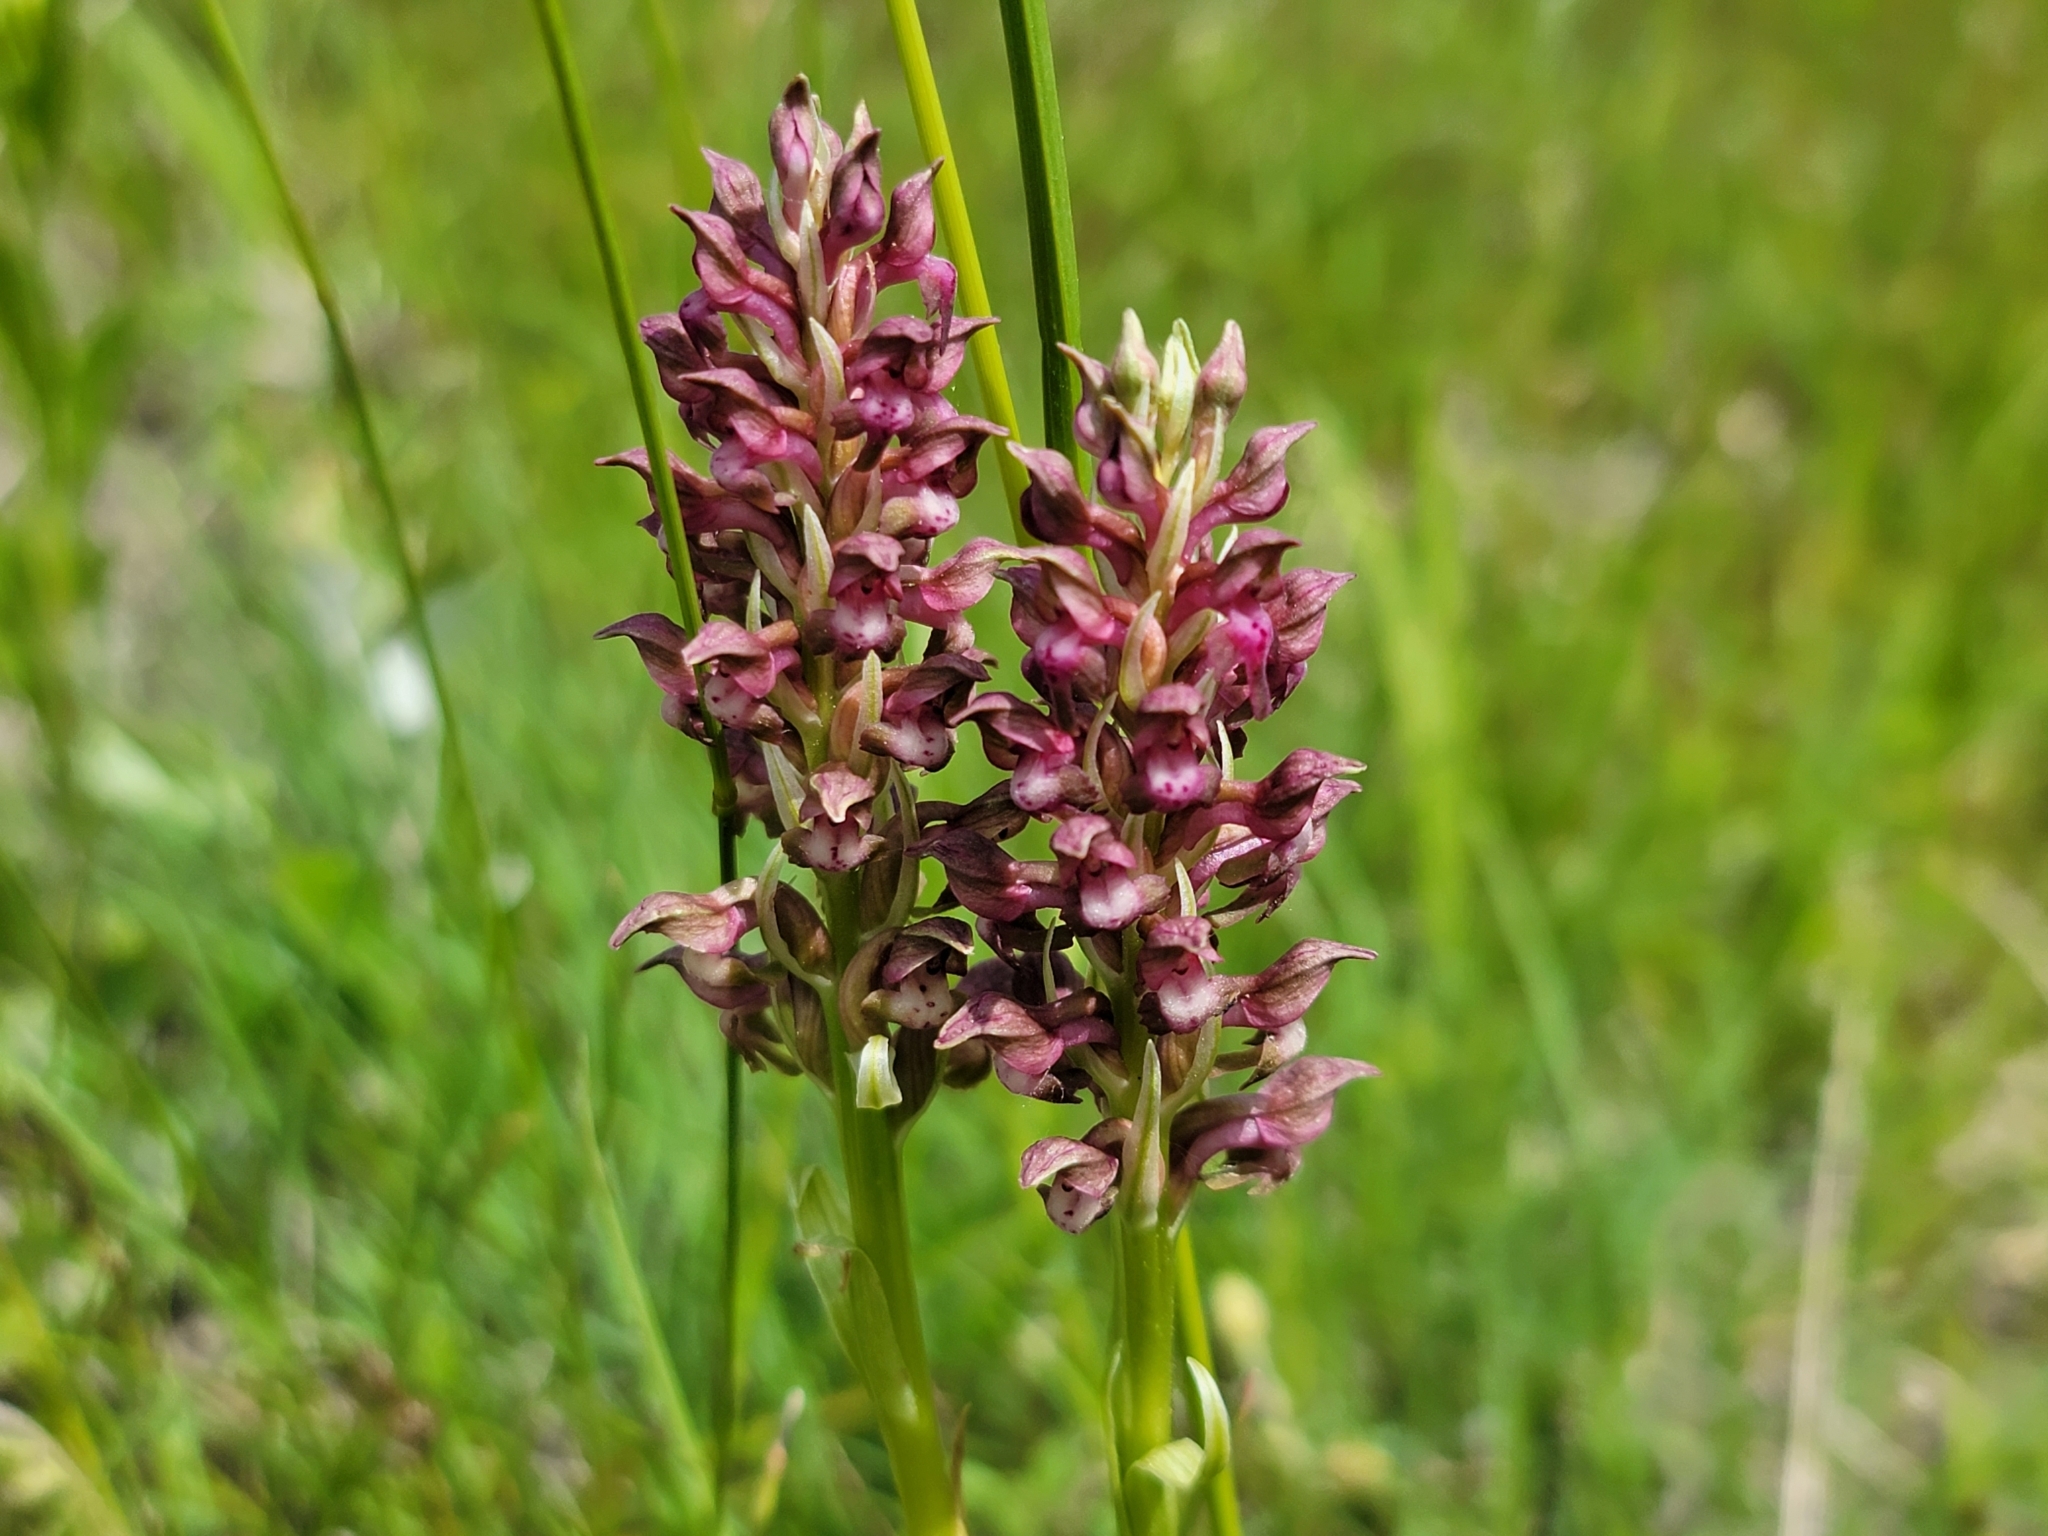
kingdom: Plantae
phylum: Tracheophyta
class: Liliopsida
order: Asparagales
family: Orchidaceae
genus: Anacamptis
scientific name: Anacamptis coriophora
